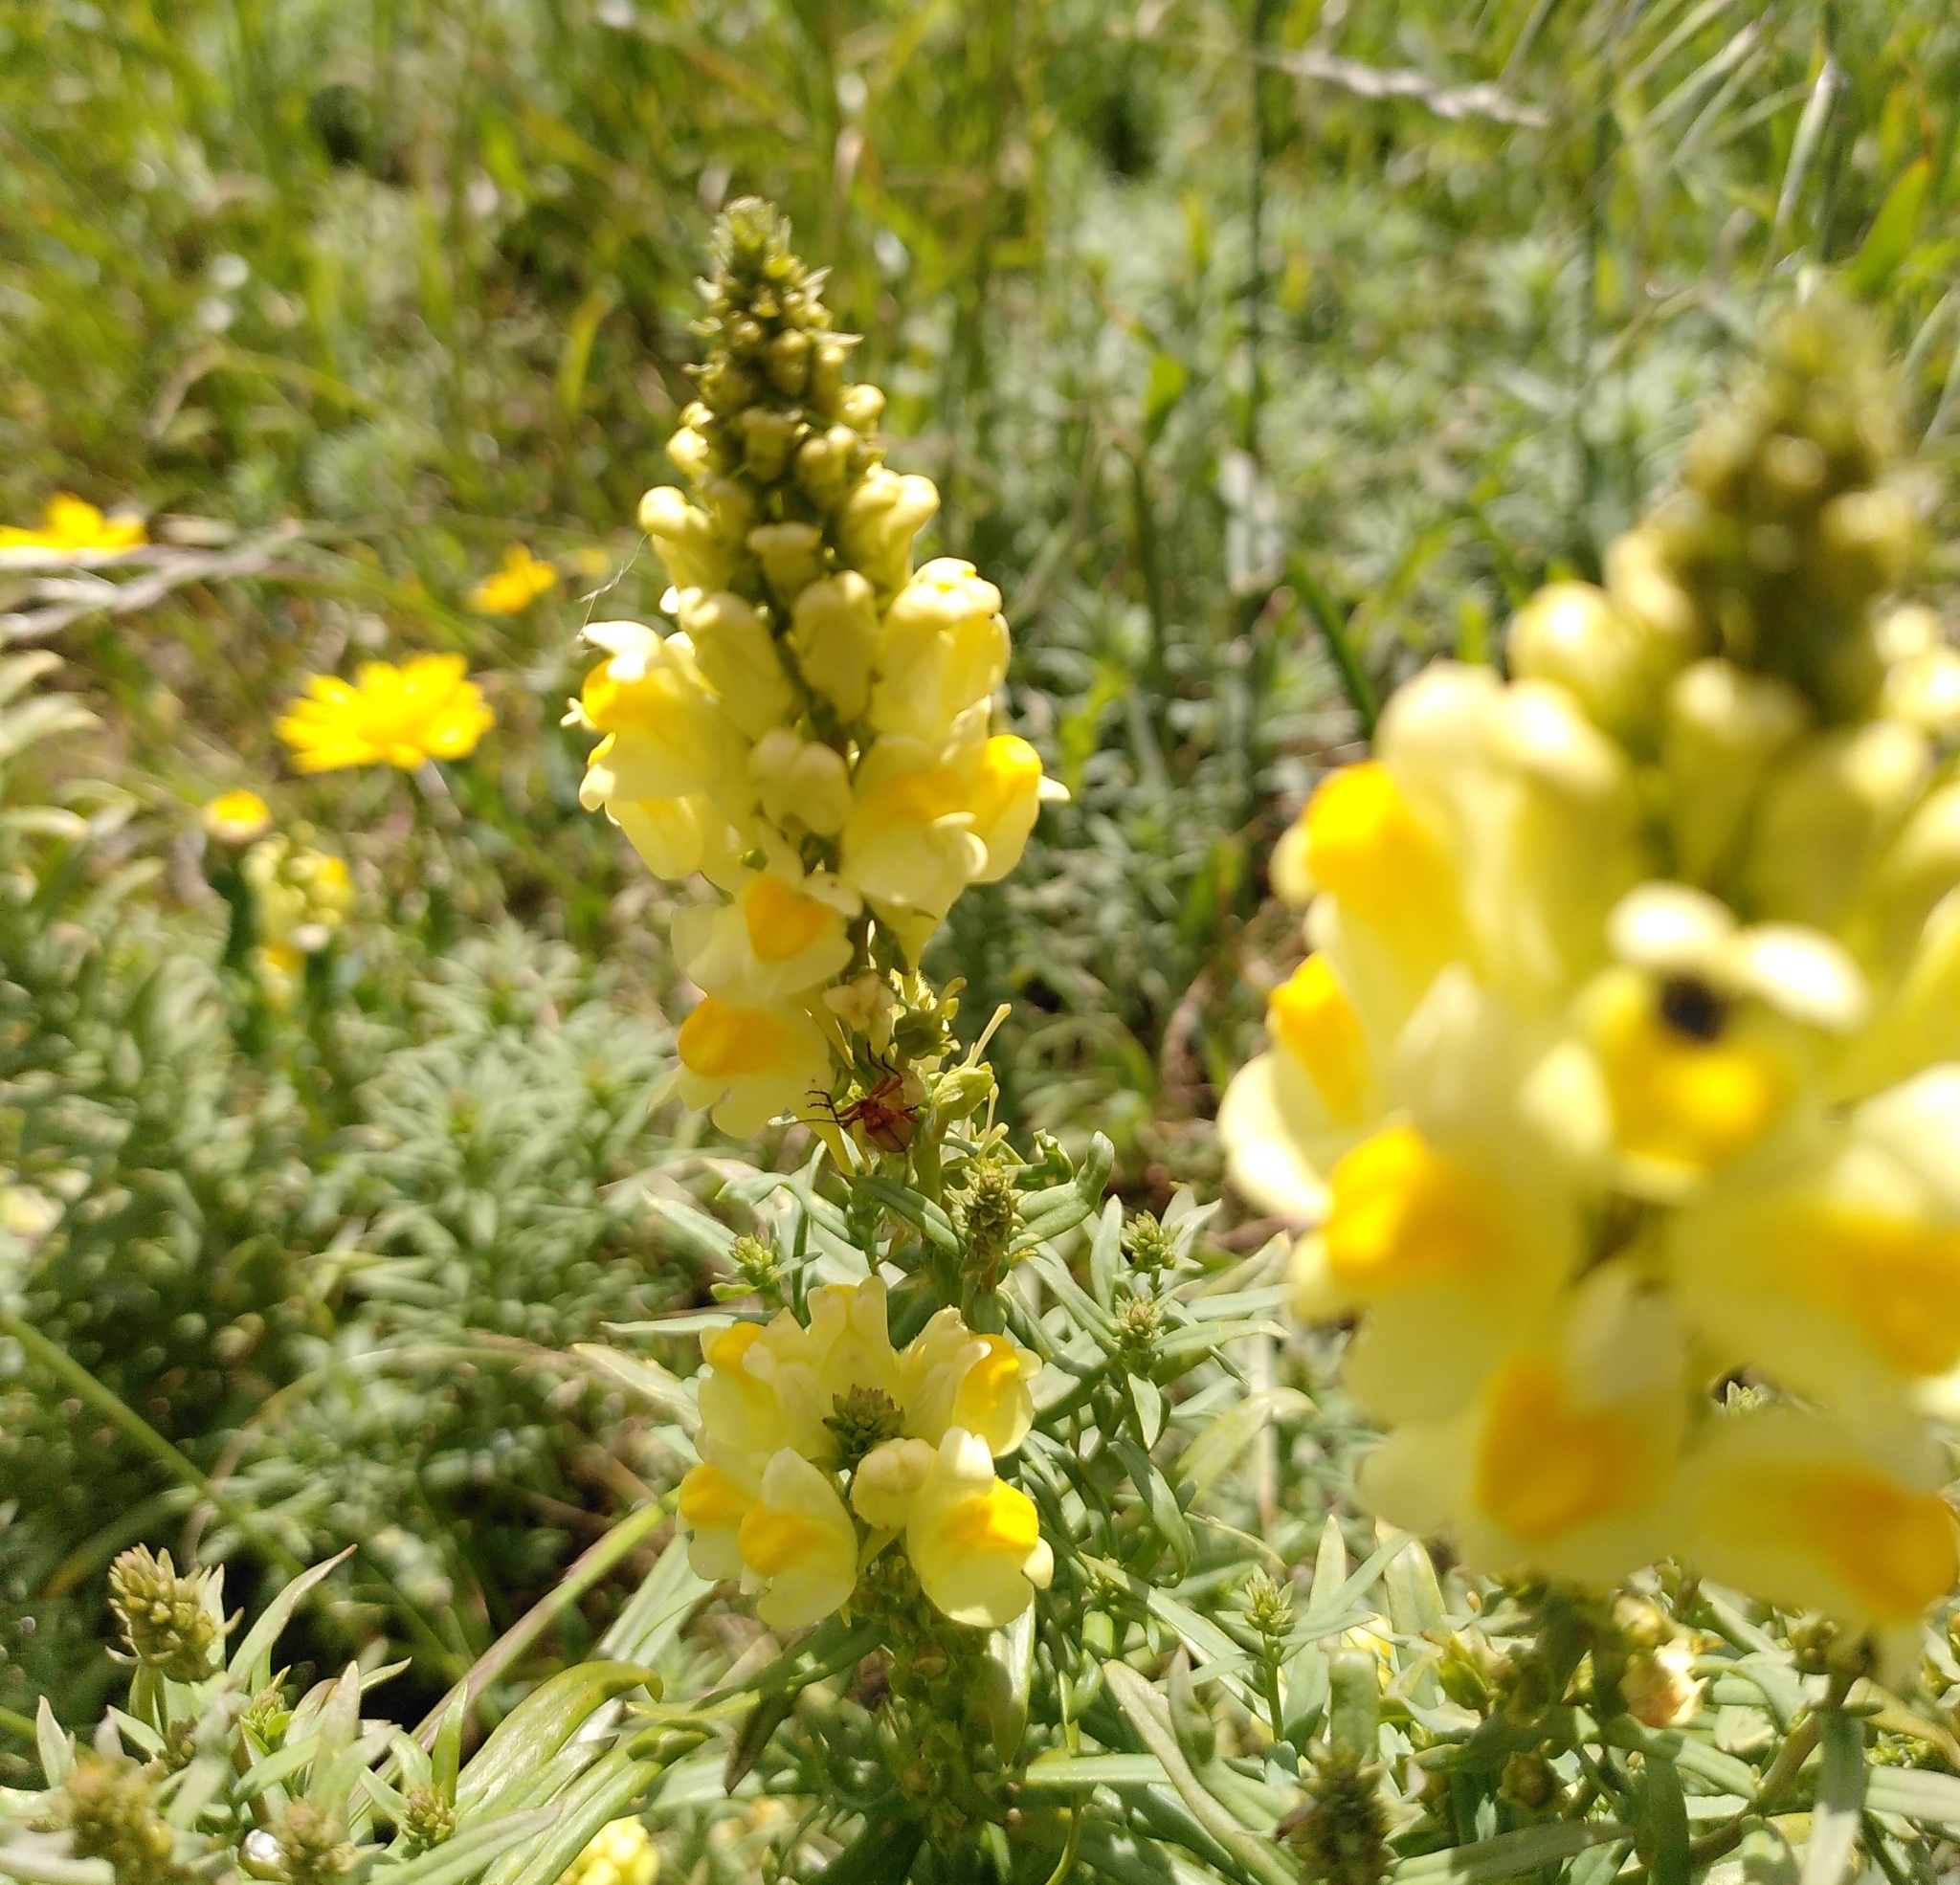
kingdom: Plantae
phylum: Tracheophyta
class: Magnoliopsida
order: Lamiales
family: Plantaginaceae
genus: Linaria
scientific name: Linaria vulgaris
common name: Butter and eggs
